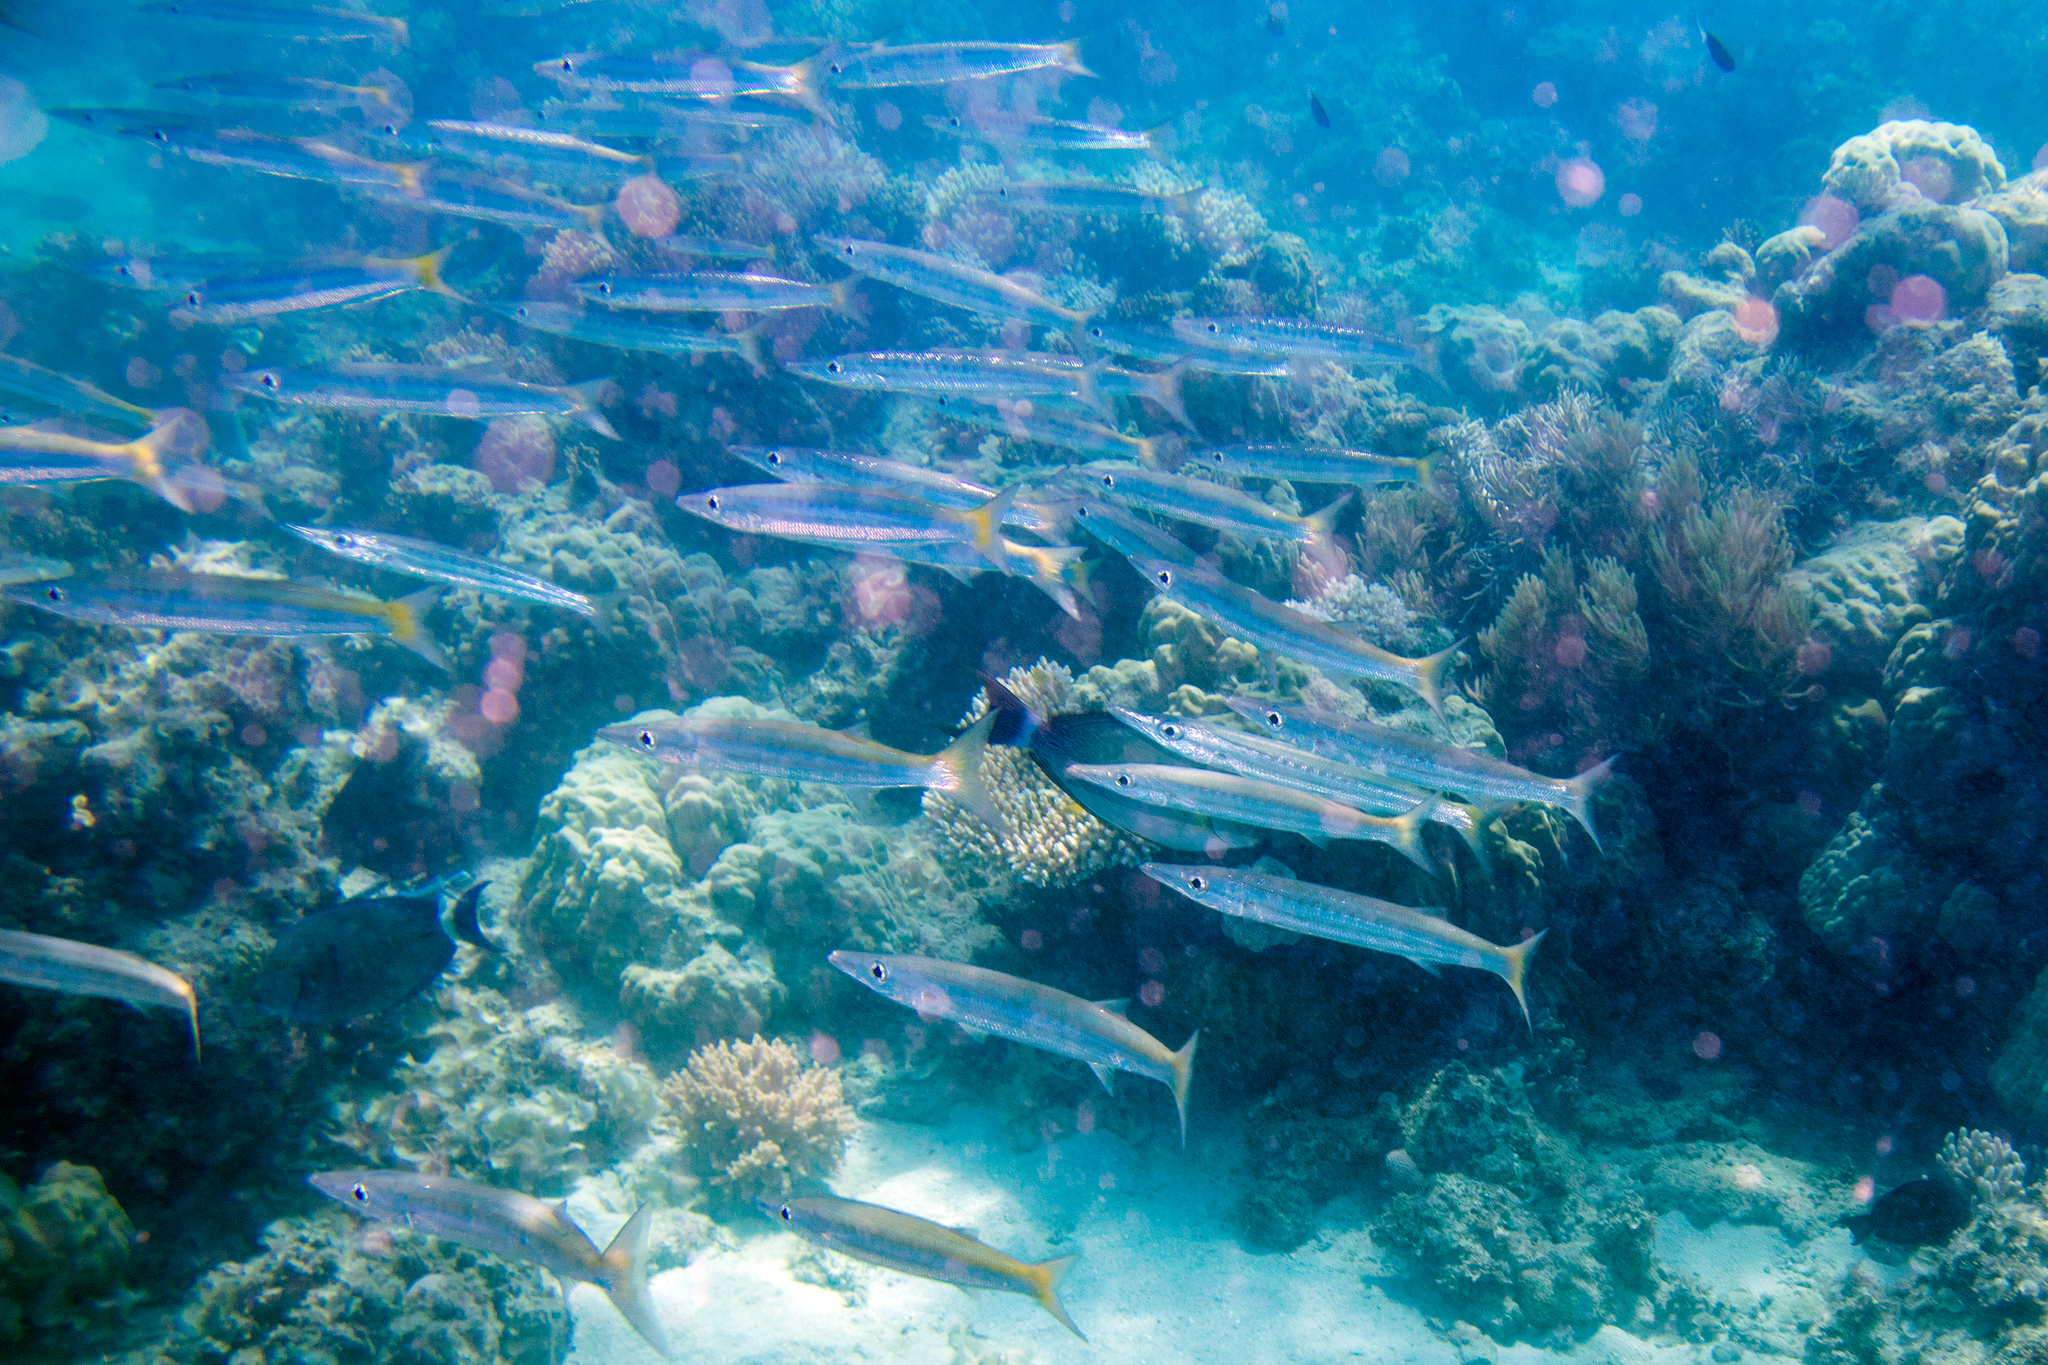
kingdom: Animalia
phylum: Chordata
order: Perciformes
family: Sphyraenidae
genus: Sphyraena
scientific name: Sphyraena obtusata
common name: Obtuse barracuda
